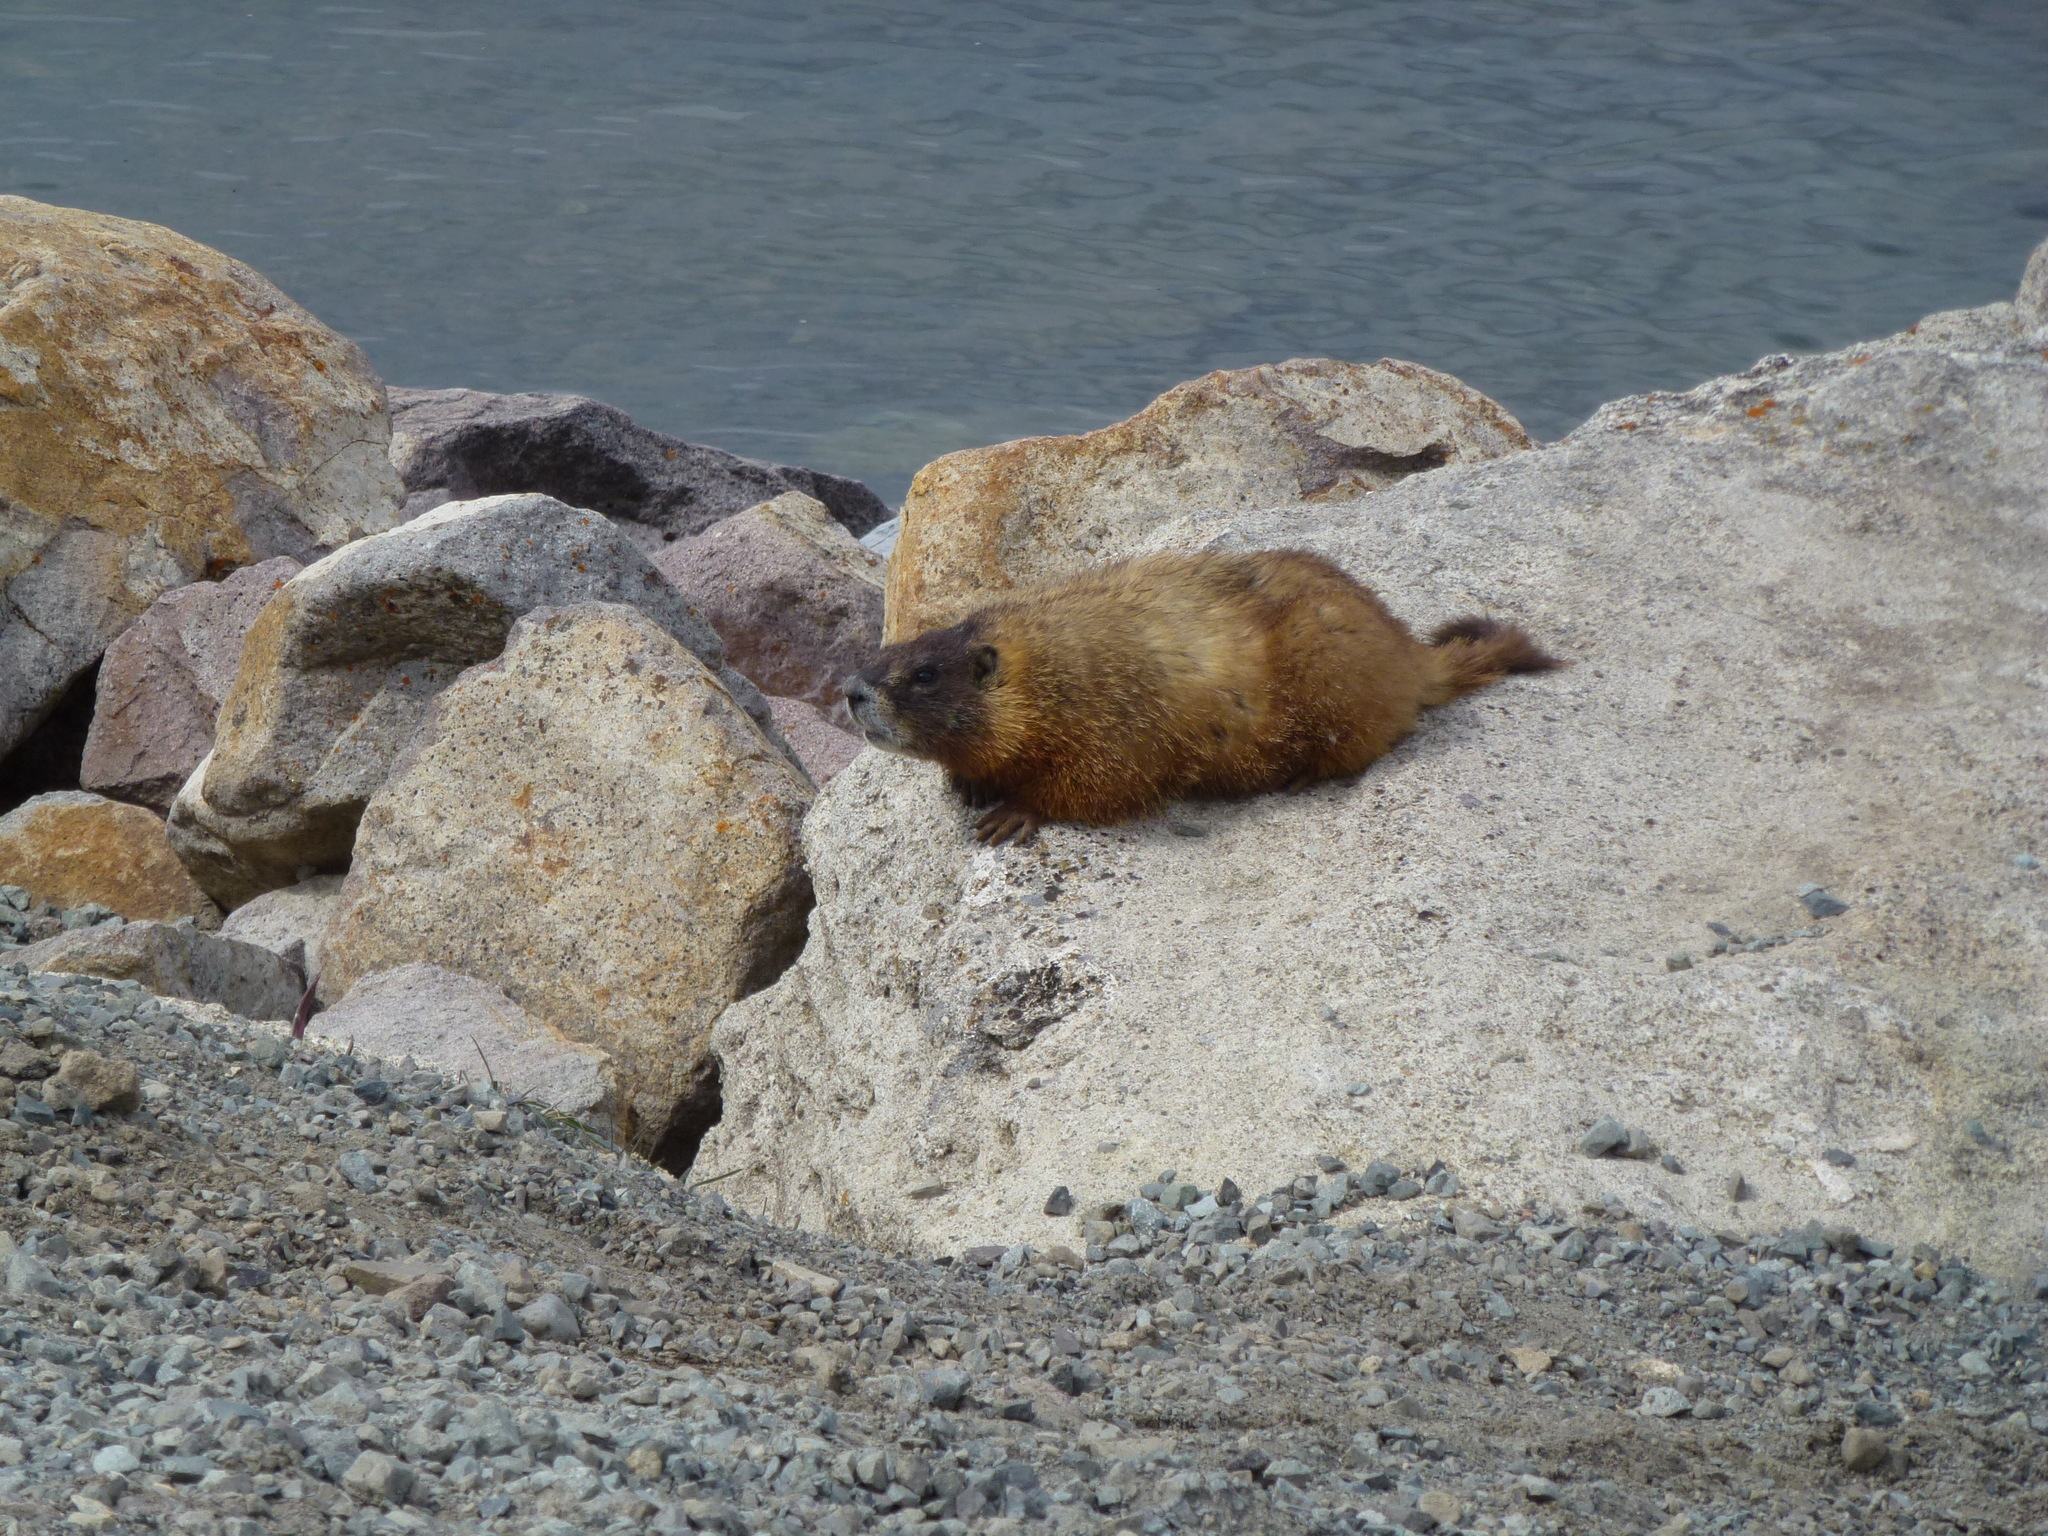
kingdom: Animalia
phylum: Chordata
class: Mammalia
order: Rodentia
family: Sciuridae
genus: Marmota
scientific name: Marmota flaviventris
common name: Yellow-bellied marmot
